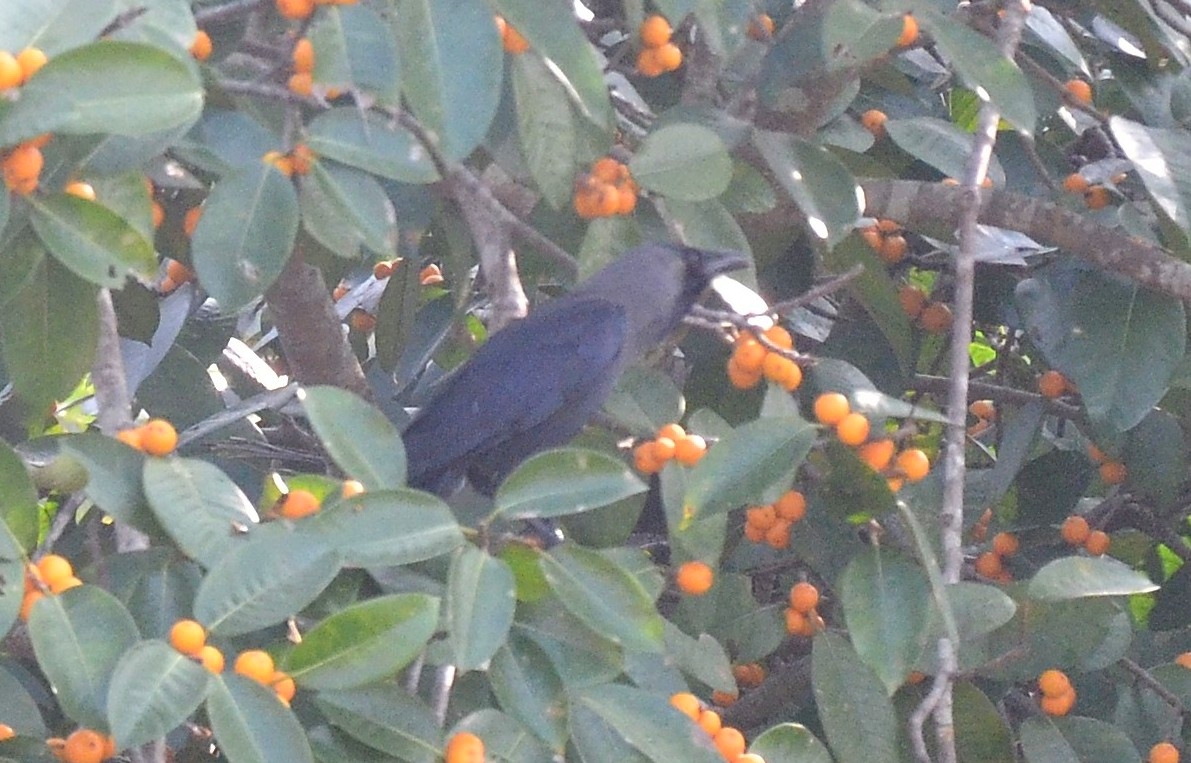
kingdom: Animalia
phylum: Chordata
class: Aves
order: Passeriformes
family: Corvidae
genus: Corvus
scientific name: Corvus splendens
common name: House crow
